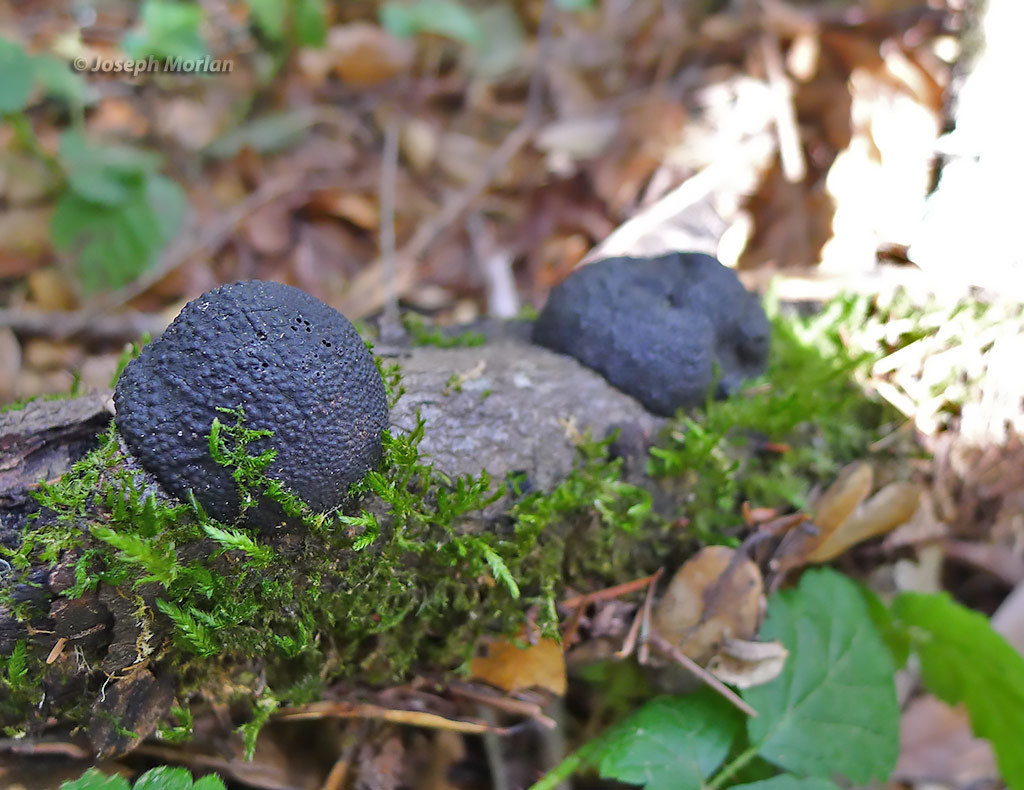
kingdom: Fungi
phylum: Ascomycota
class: Sordariomycetes
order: Xylariales
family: Hypoxylaceae
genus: Annulohypoxylon
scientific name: Annulohypoxylon thouarsianum
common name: Cramp balls
